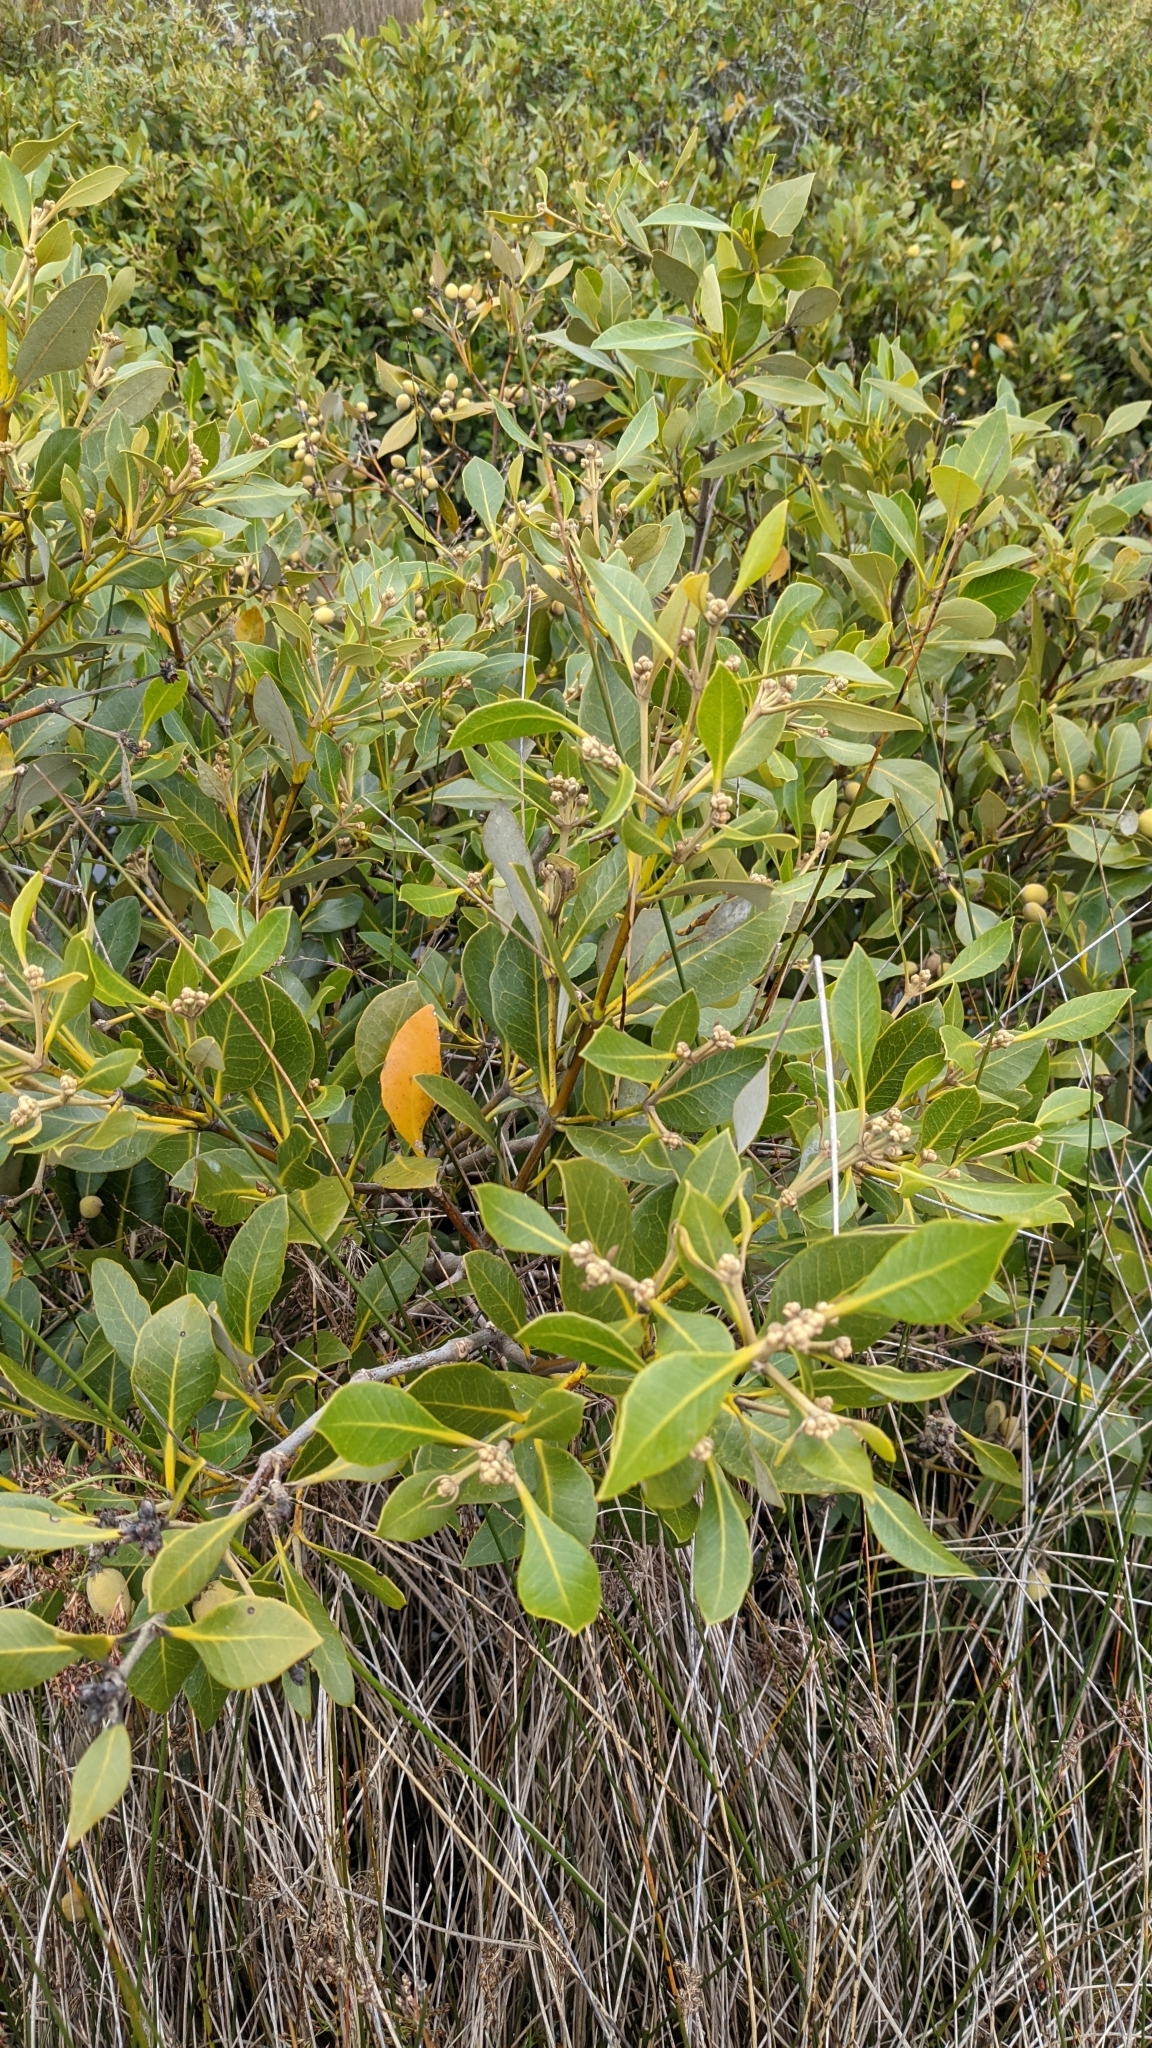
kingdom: Plantae
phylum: Tracheophyta
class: Magnoliopsida
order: Lamiales
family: Acanthaceae
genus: Avicennia
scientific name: Avicennia marina
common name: Gray mangrove
